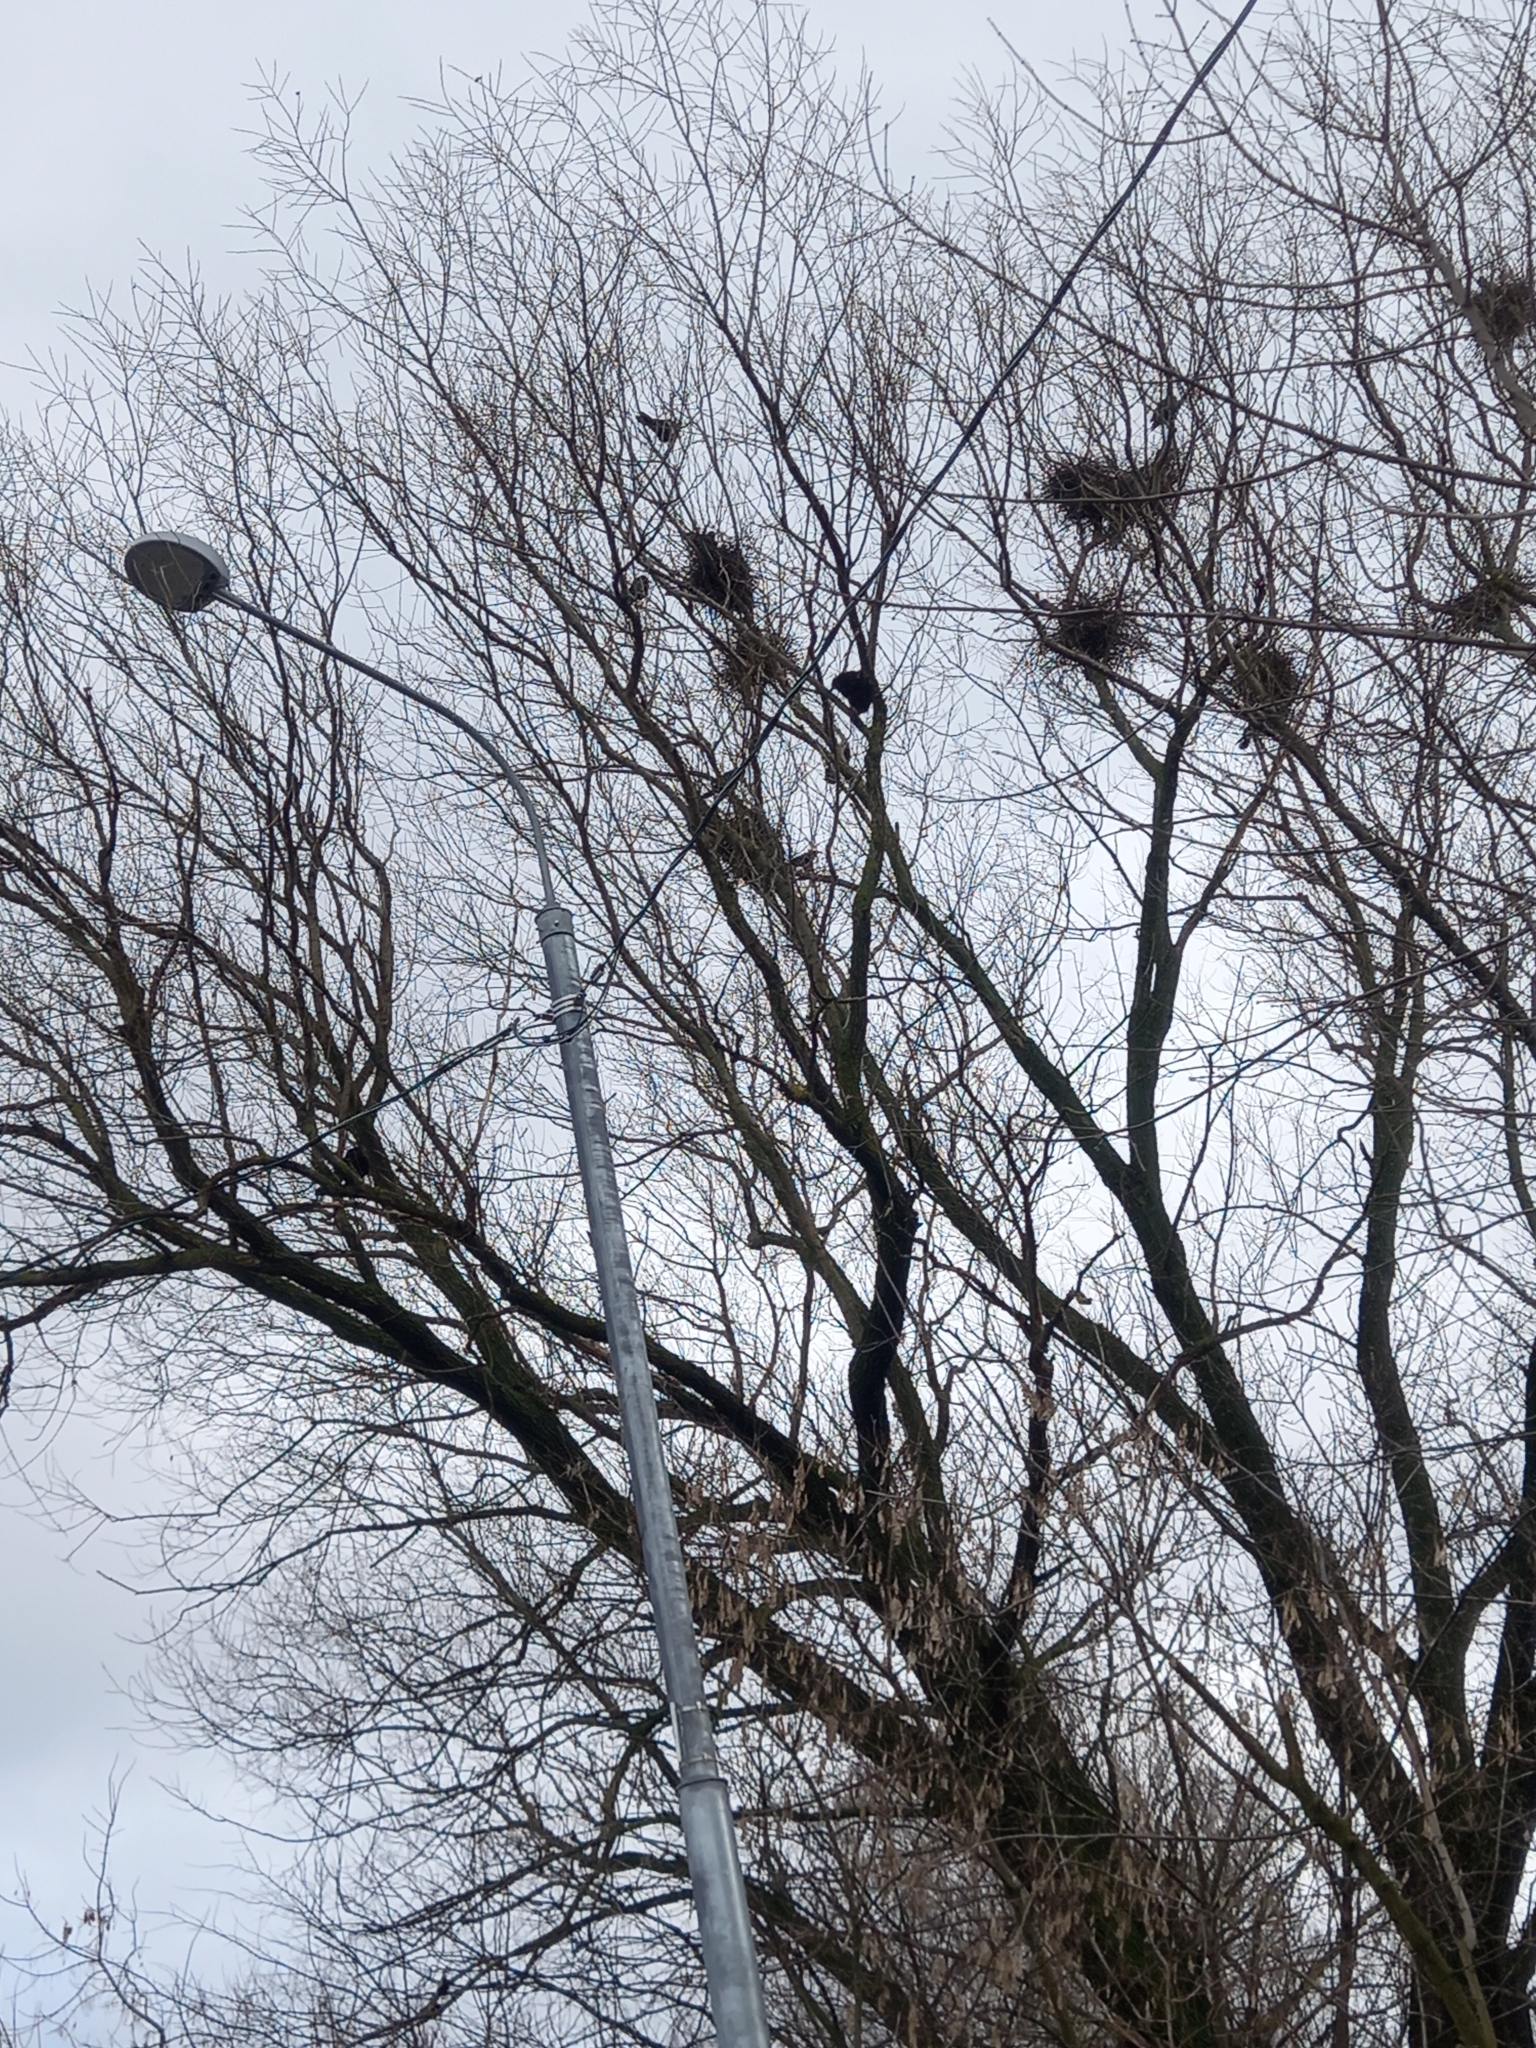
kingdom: Animalia
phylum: Chordata
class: Aves
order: Passeriformes
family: Corvidae
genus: Corvus
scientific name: Corvus frugilegus
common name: Rook
